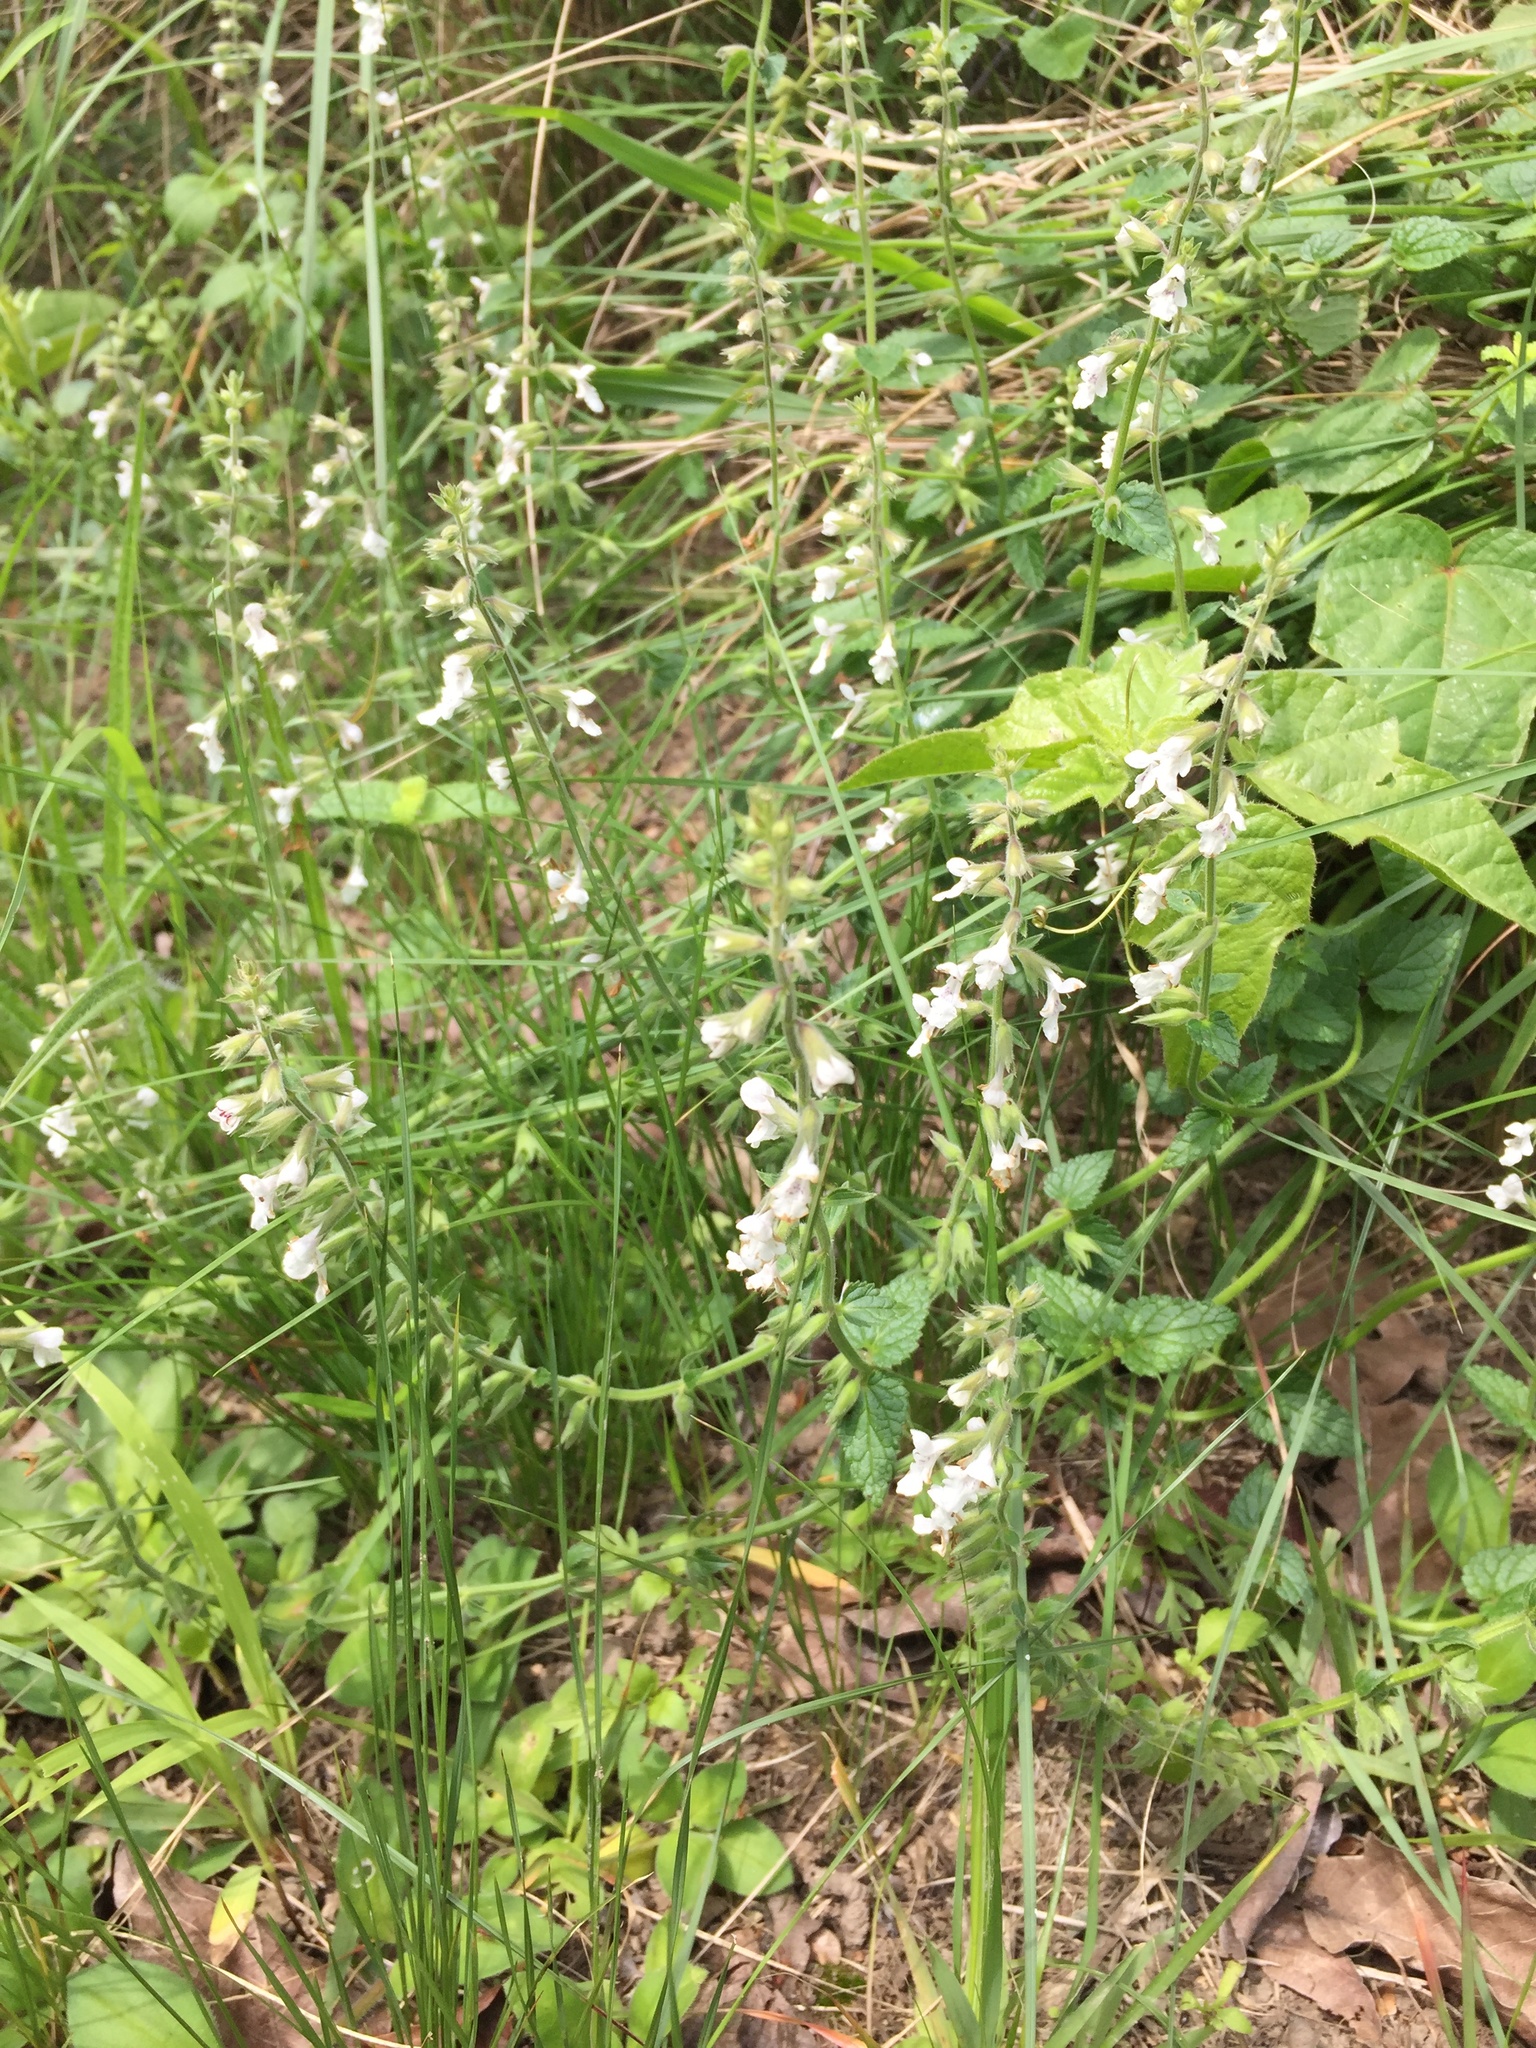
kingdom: Plantae
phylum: Tracheophyta
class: Magnoliopsida
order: Lamiales
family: Lamiaceae
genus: Stachys
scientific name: Stachys aethiopica
